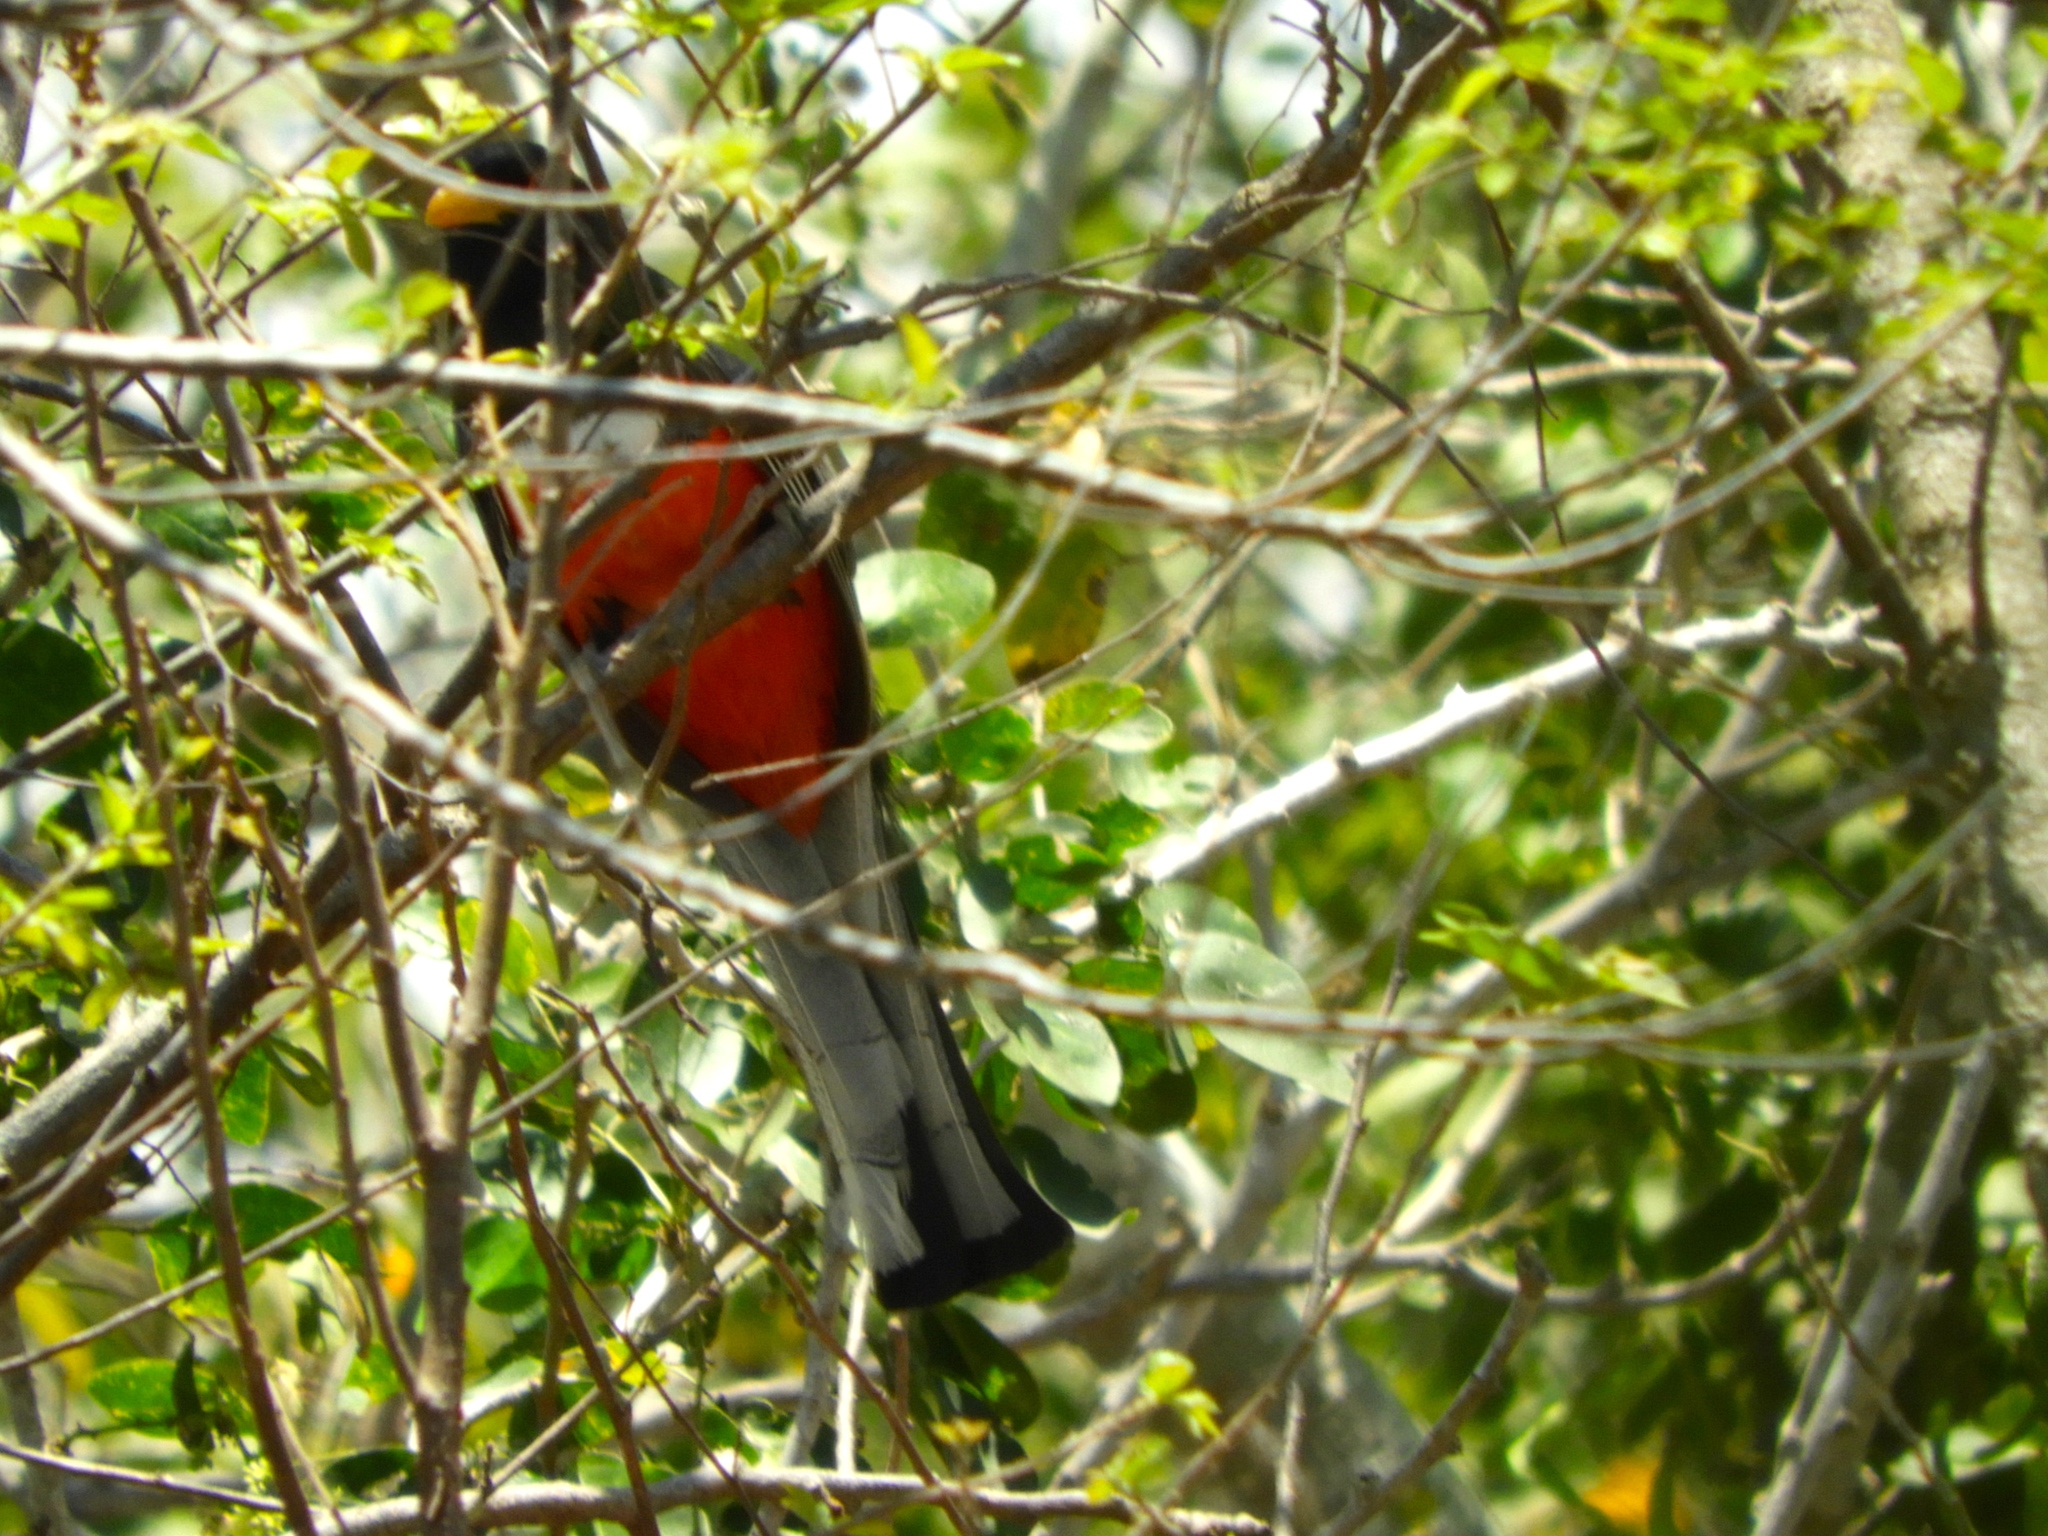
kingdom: Animalia
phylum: Chordata
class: Aves
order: Trogoniformes
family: Trogonidae
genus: Trogon
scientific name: Trogon elegans
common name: Elegant trogon
